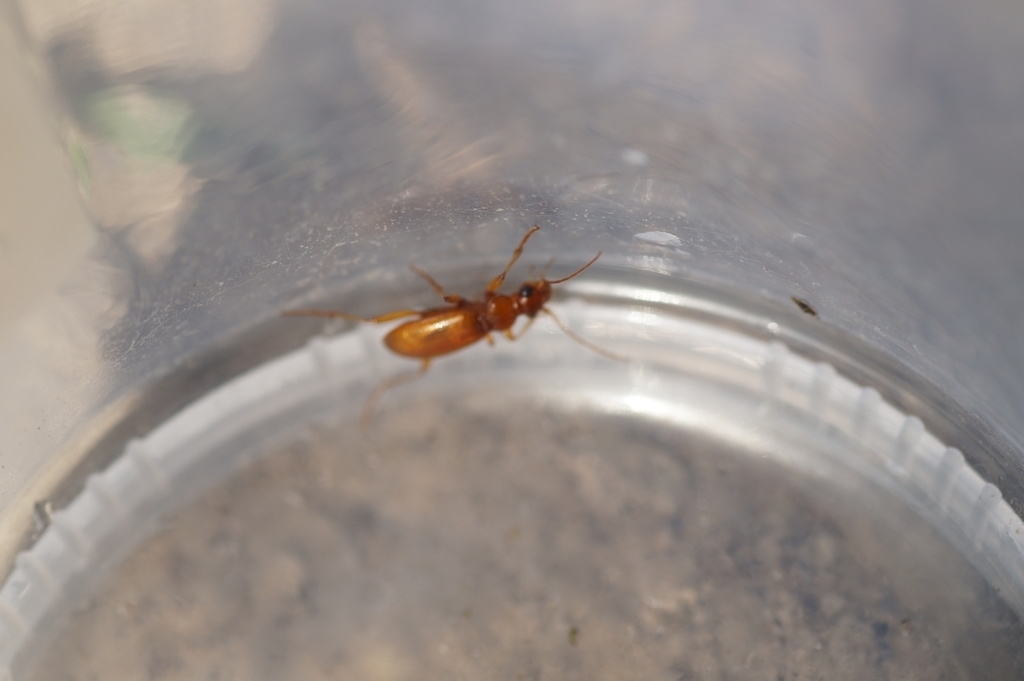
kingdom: Animalia
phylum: Arthropoda
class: Insecta
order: Coleoptera
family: Carabidae
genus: Leistus
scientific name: Leistus
